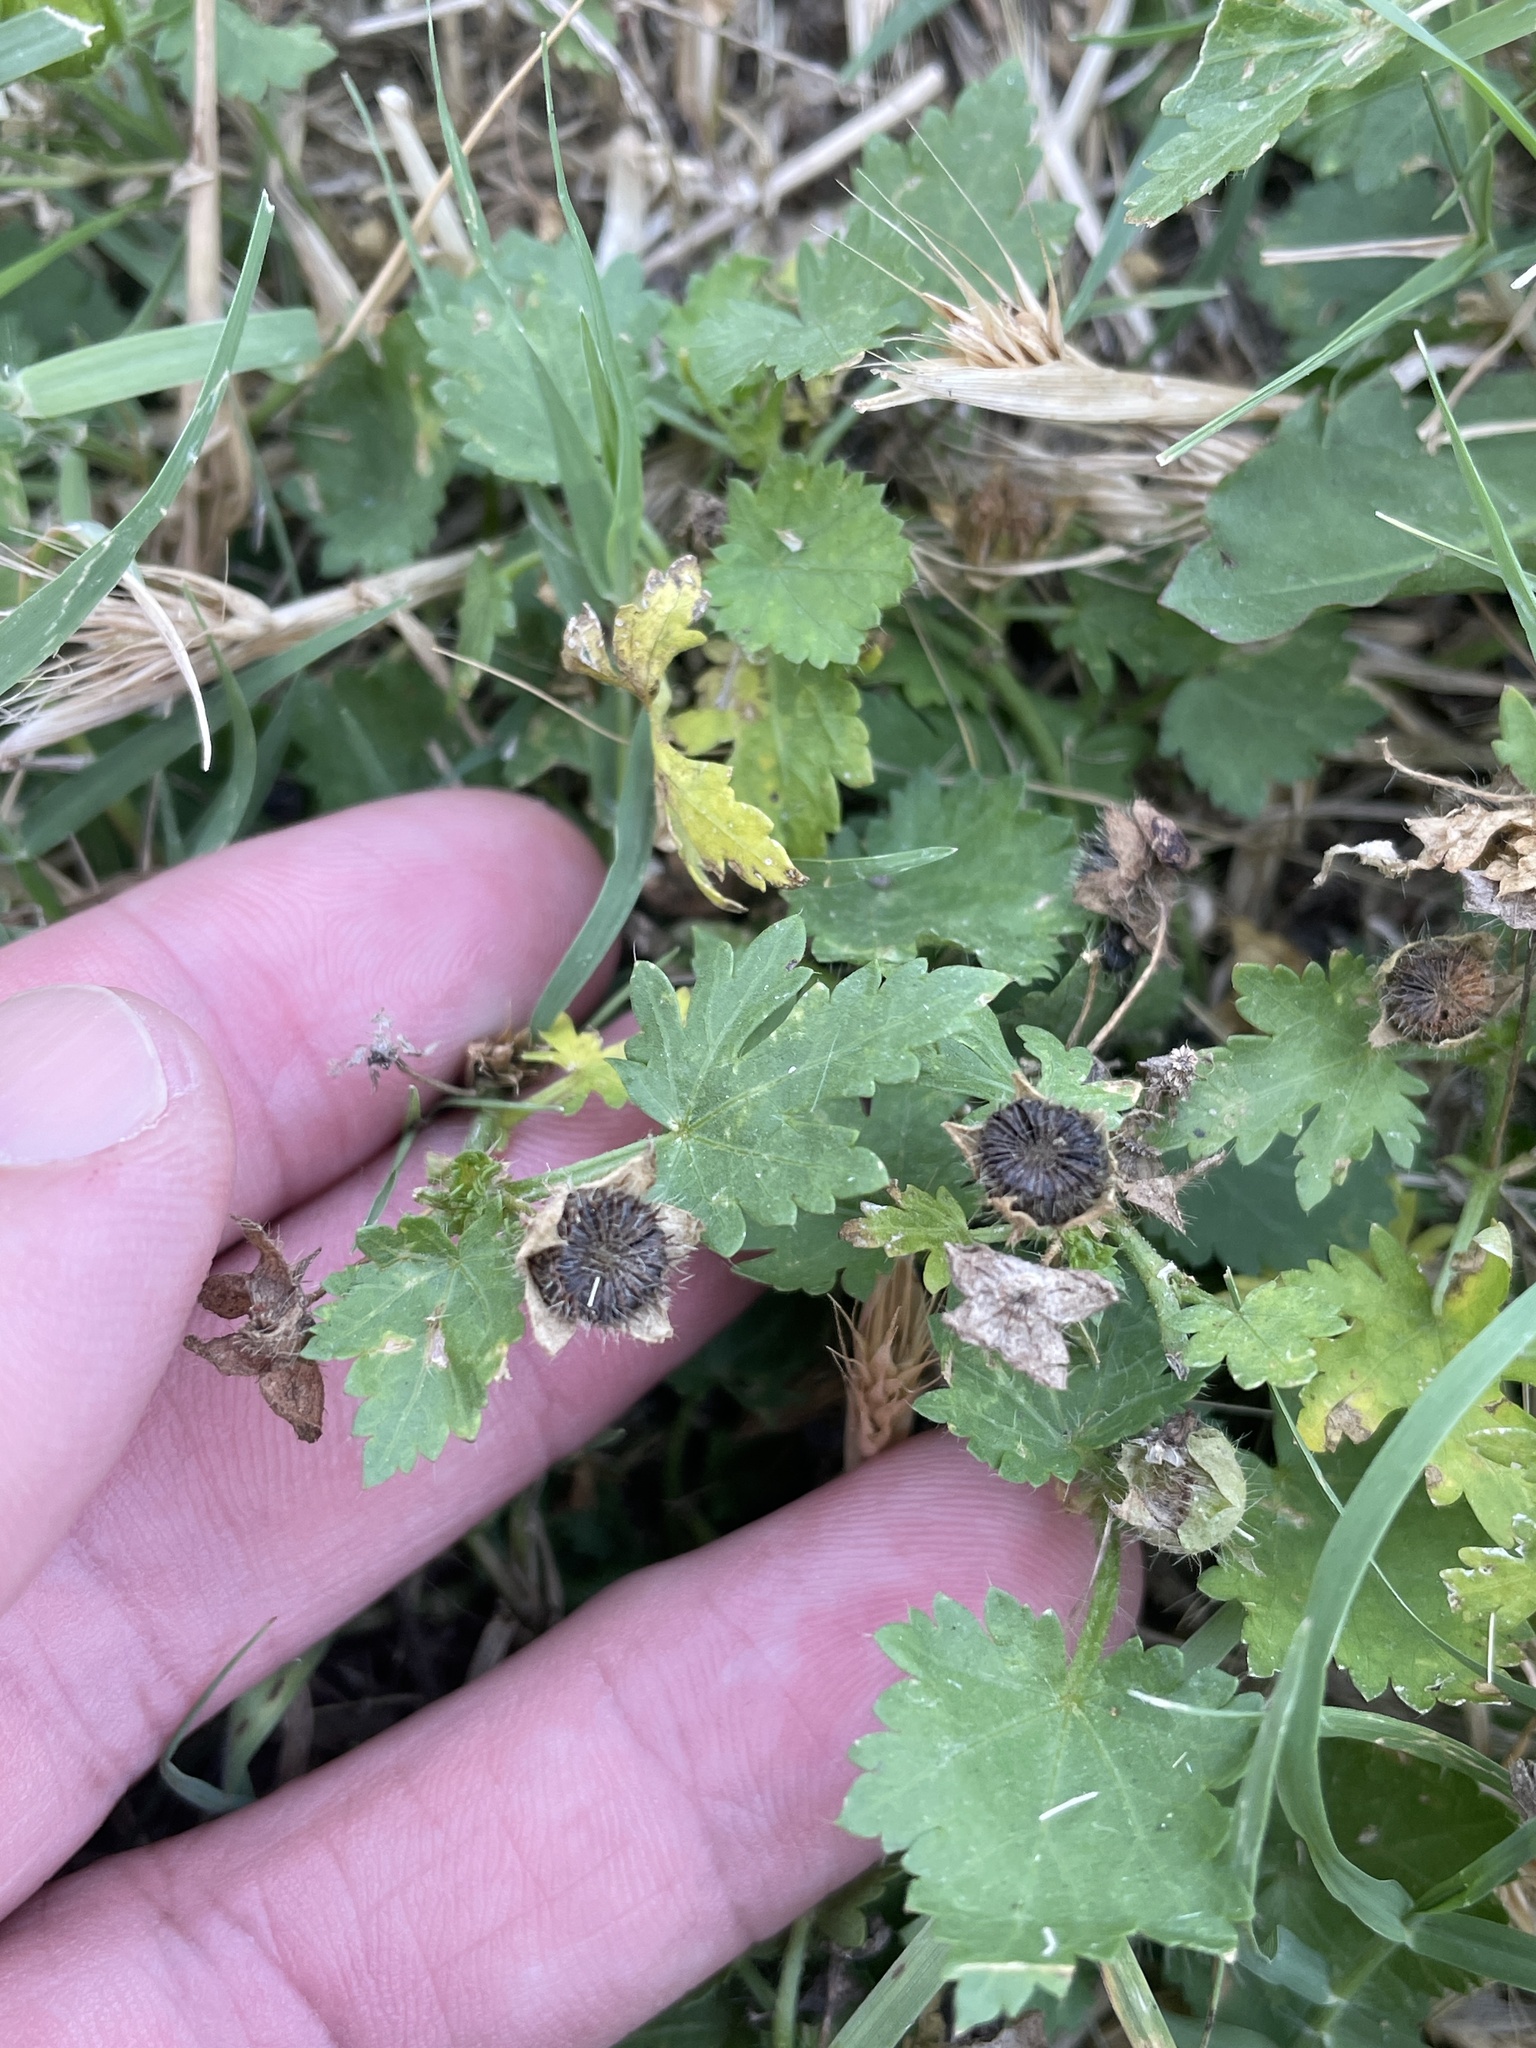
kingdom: Plantae
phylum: Tracheophyta
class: Magnoliopsida
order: Malvales
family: Malvaceae
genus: Modiola
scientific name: Modiola caroliniana
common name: Carolina bristlemallow
